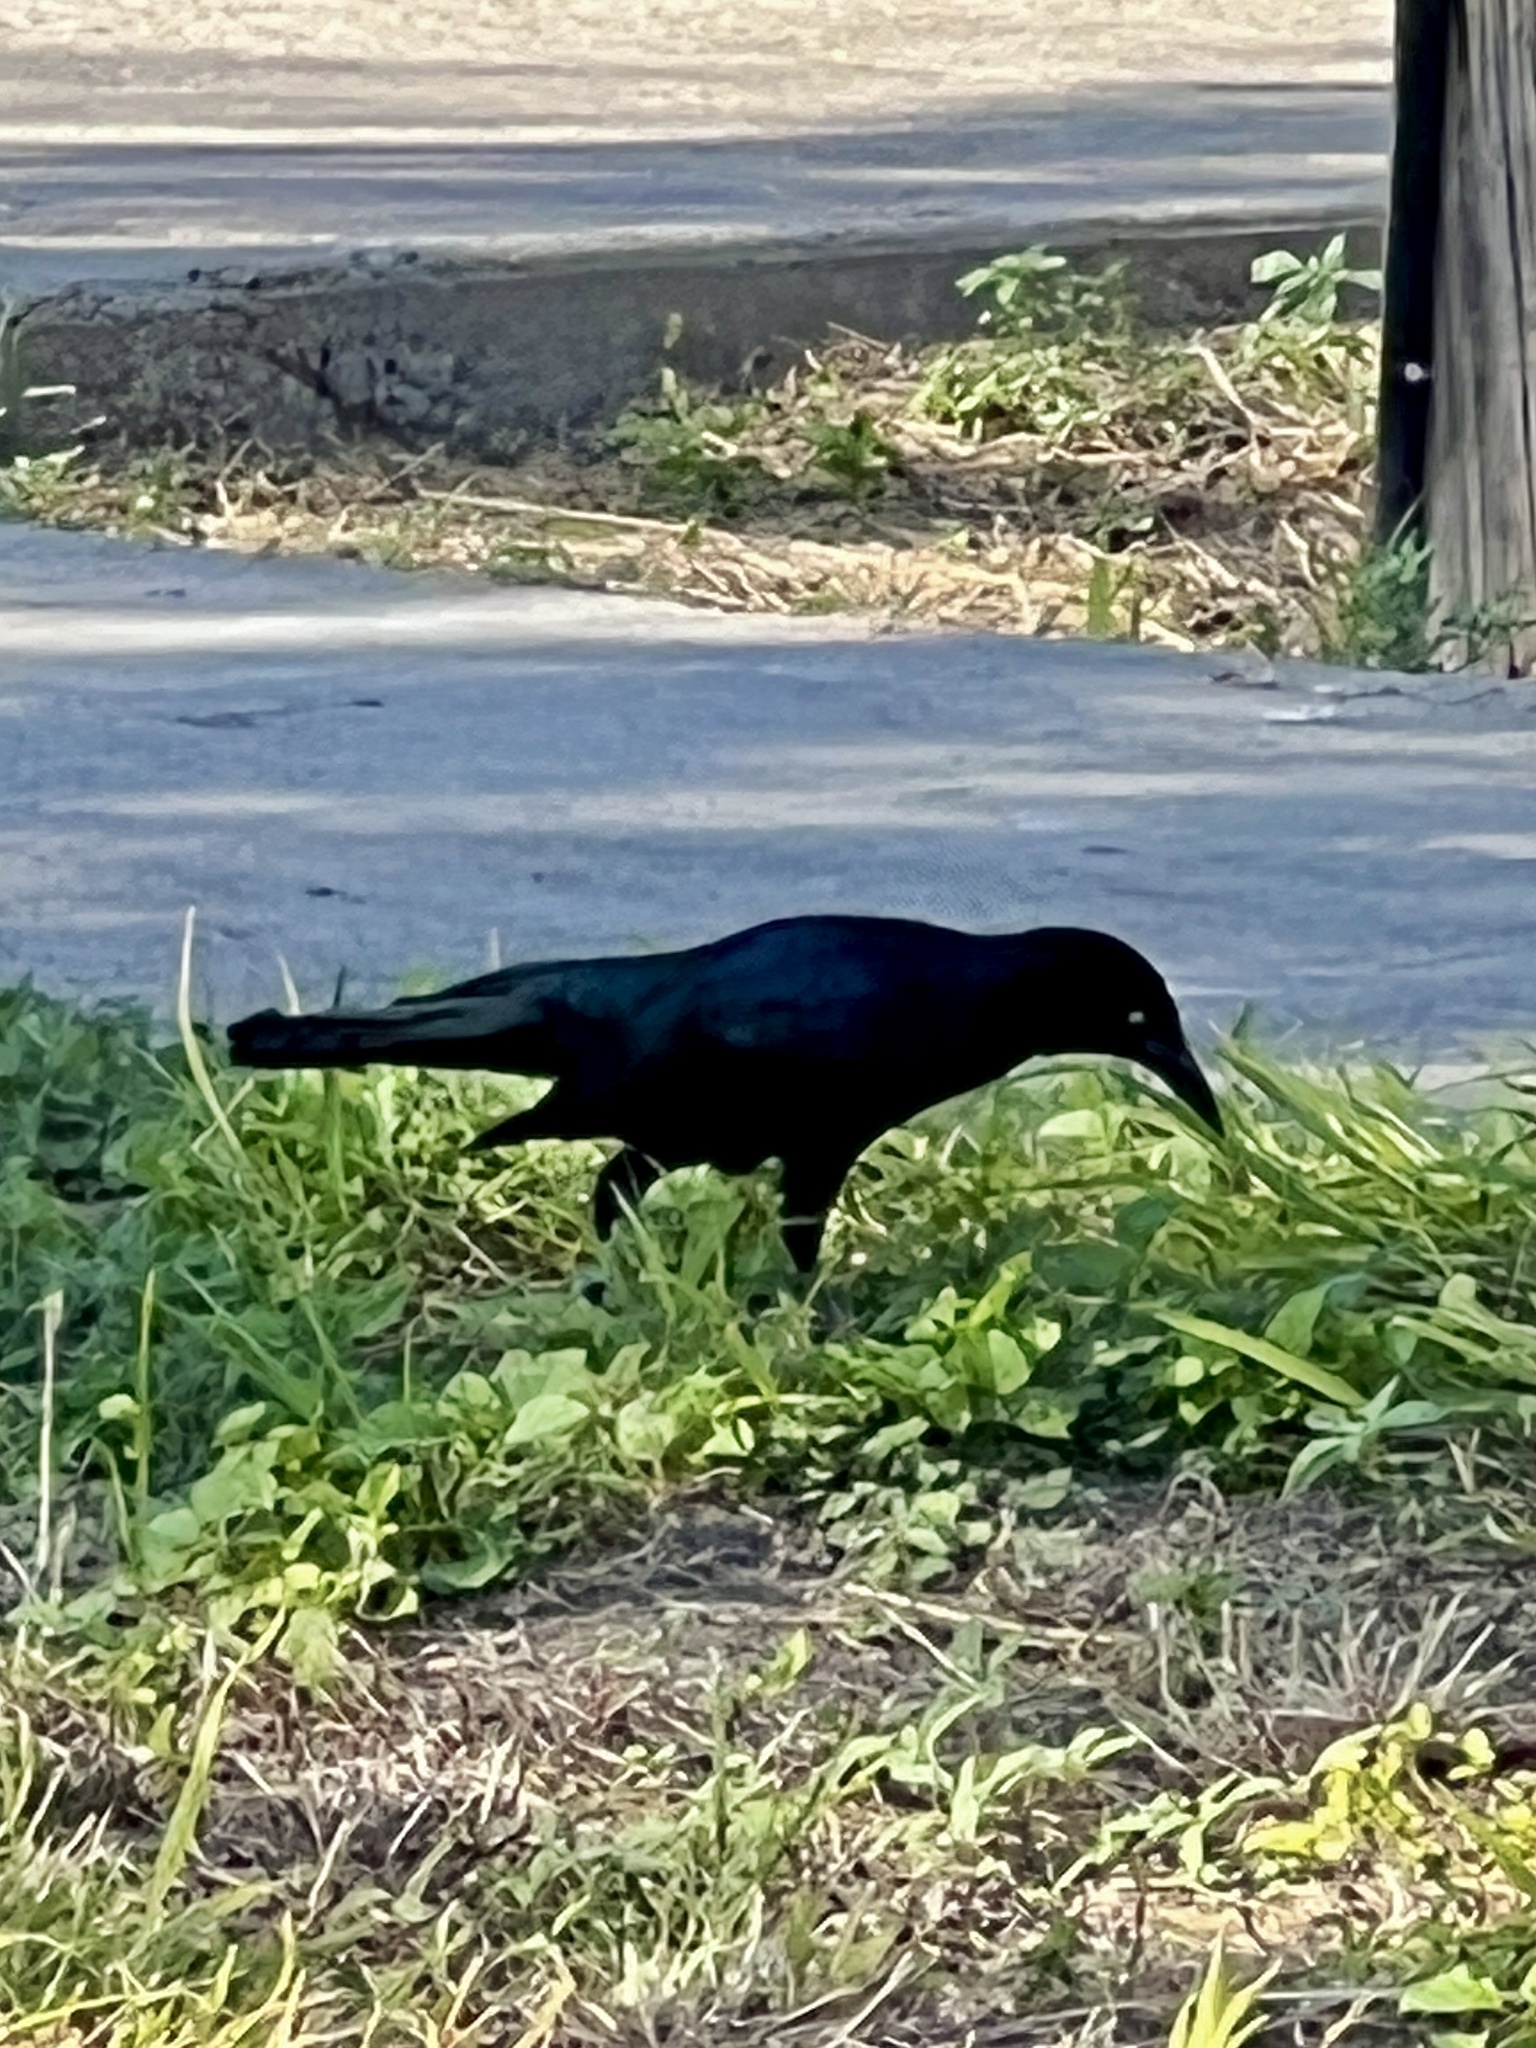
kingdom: Animalia
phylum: Chordata
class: Aves
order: Passeriformes
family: Icteridae
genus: Quiscalus
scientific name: Quiscalus mexicanus
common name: Great-tailed grackle
